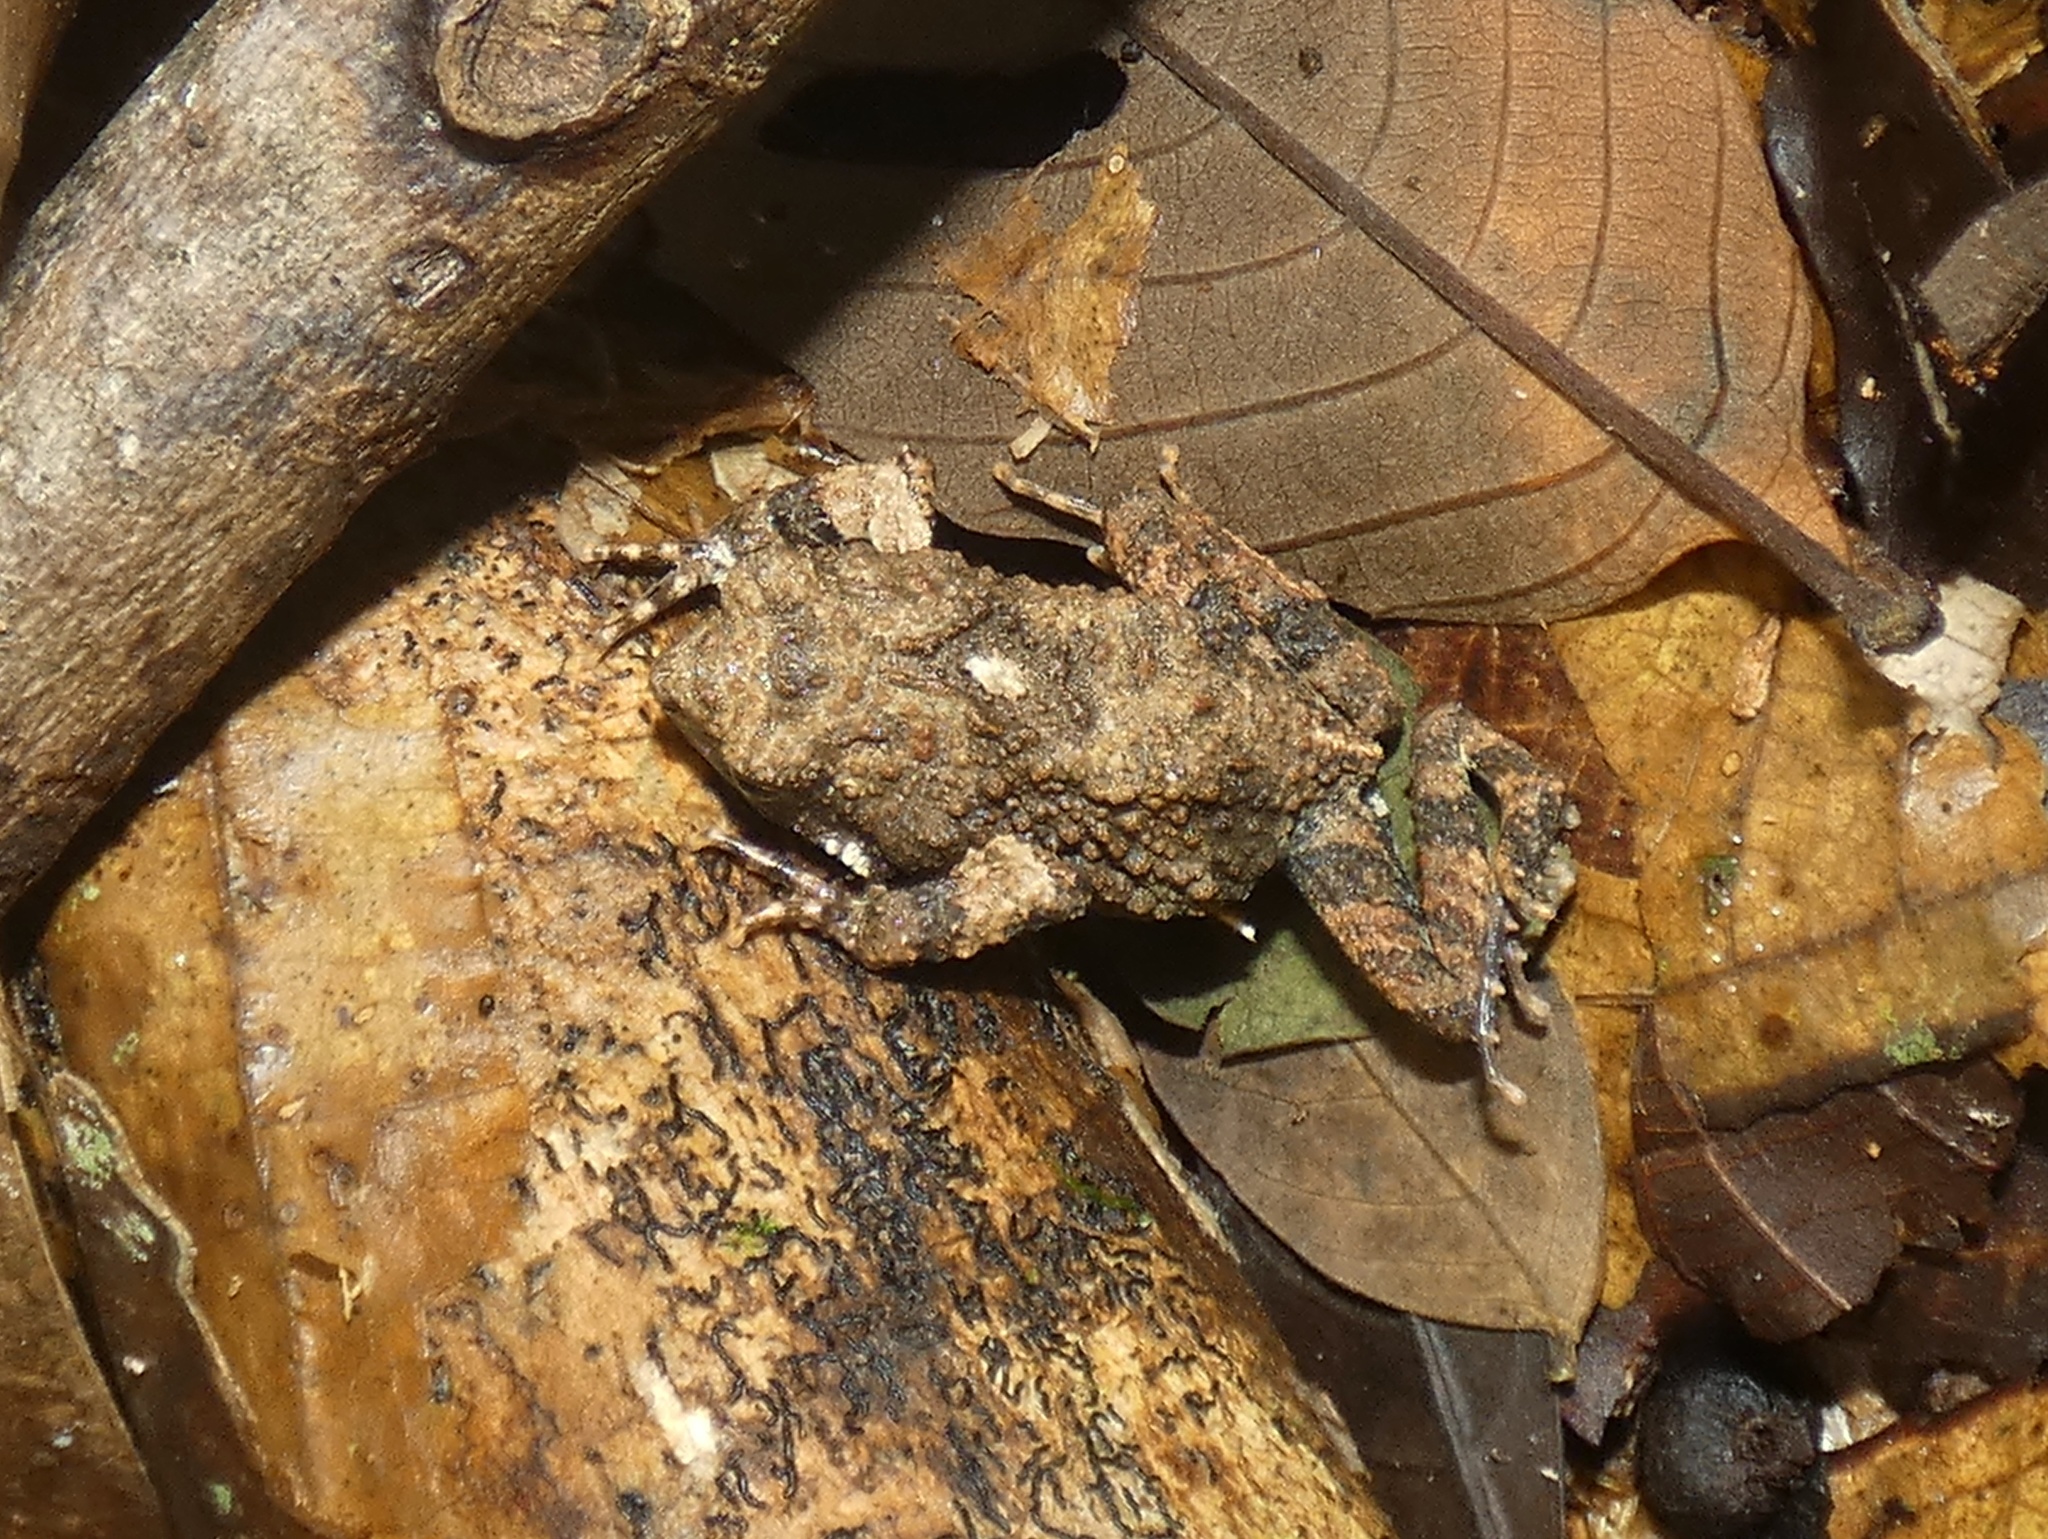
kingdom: Animalia
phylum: Chordata
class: Amphibia
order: Anura
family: Leptodactylidae
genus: Engystomops
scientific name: Engystomops pustulosus
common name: Tungara frog
